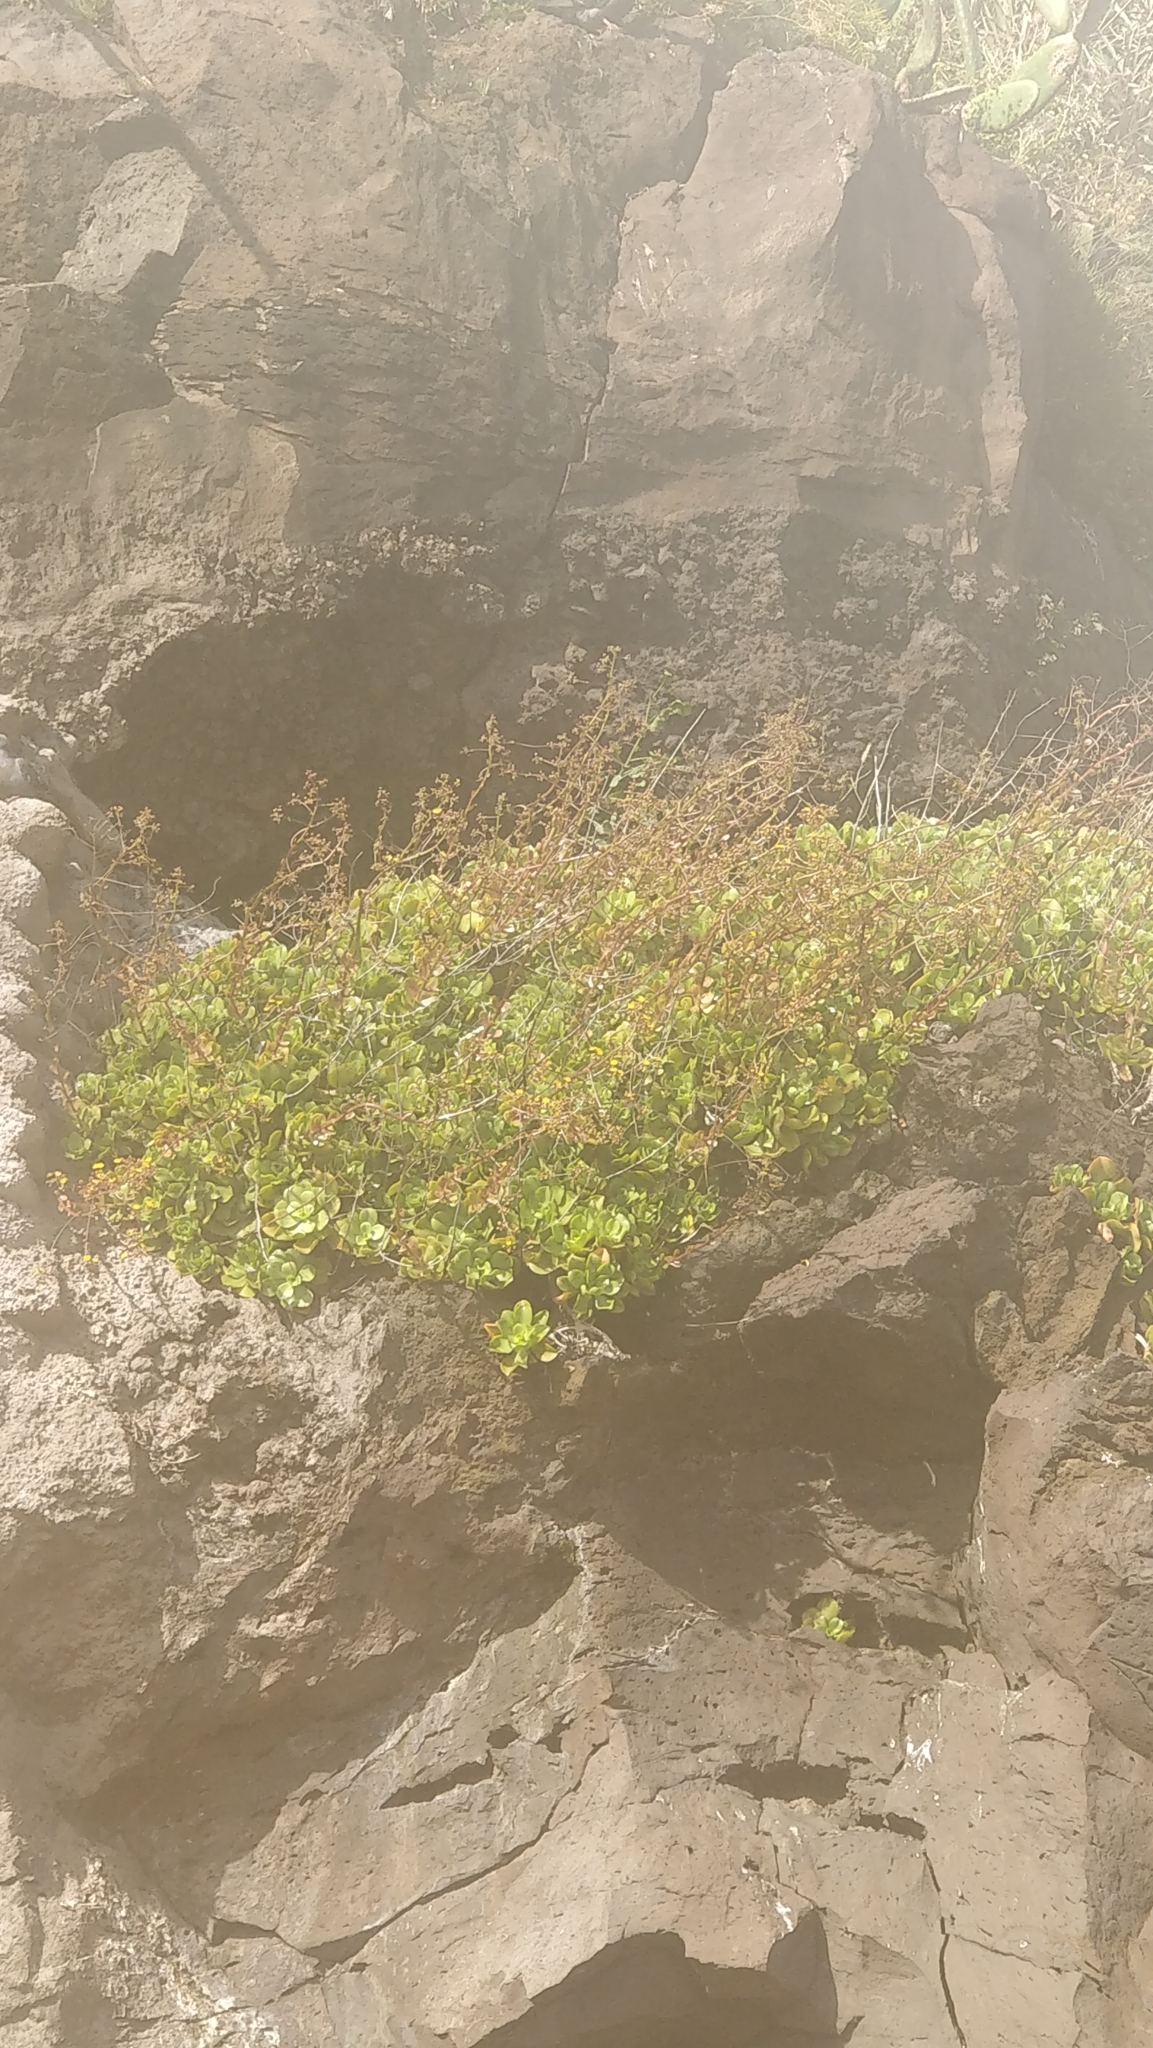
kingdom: Plantae
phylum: Tracheophyta
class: Magnoliopsida
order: Saxifragales
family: Crassulaceae
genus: Aeonium
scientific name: Aeonium glutinosum
